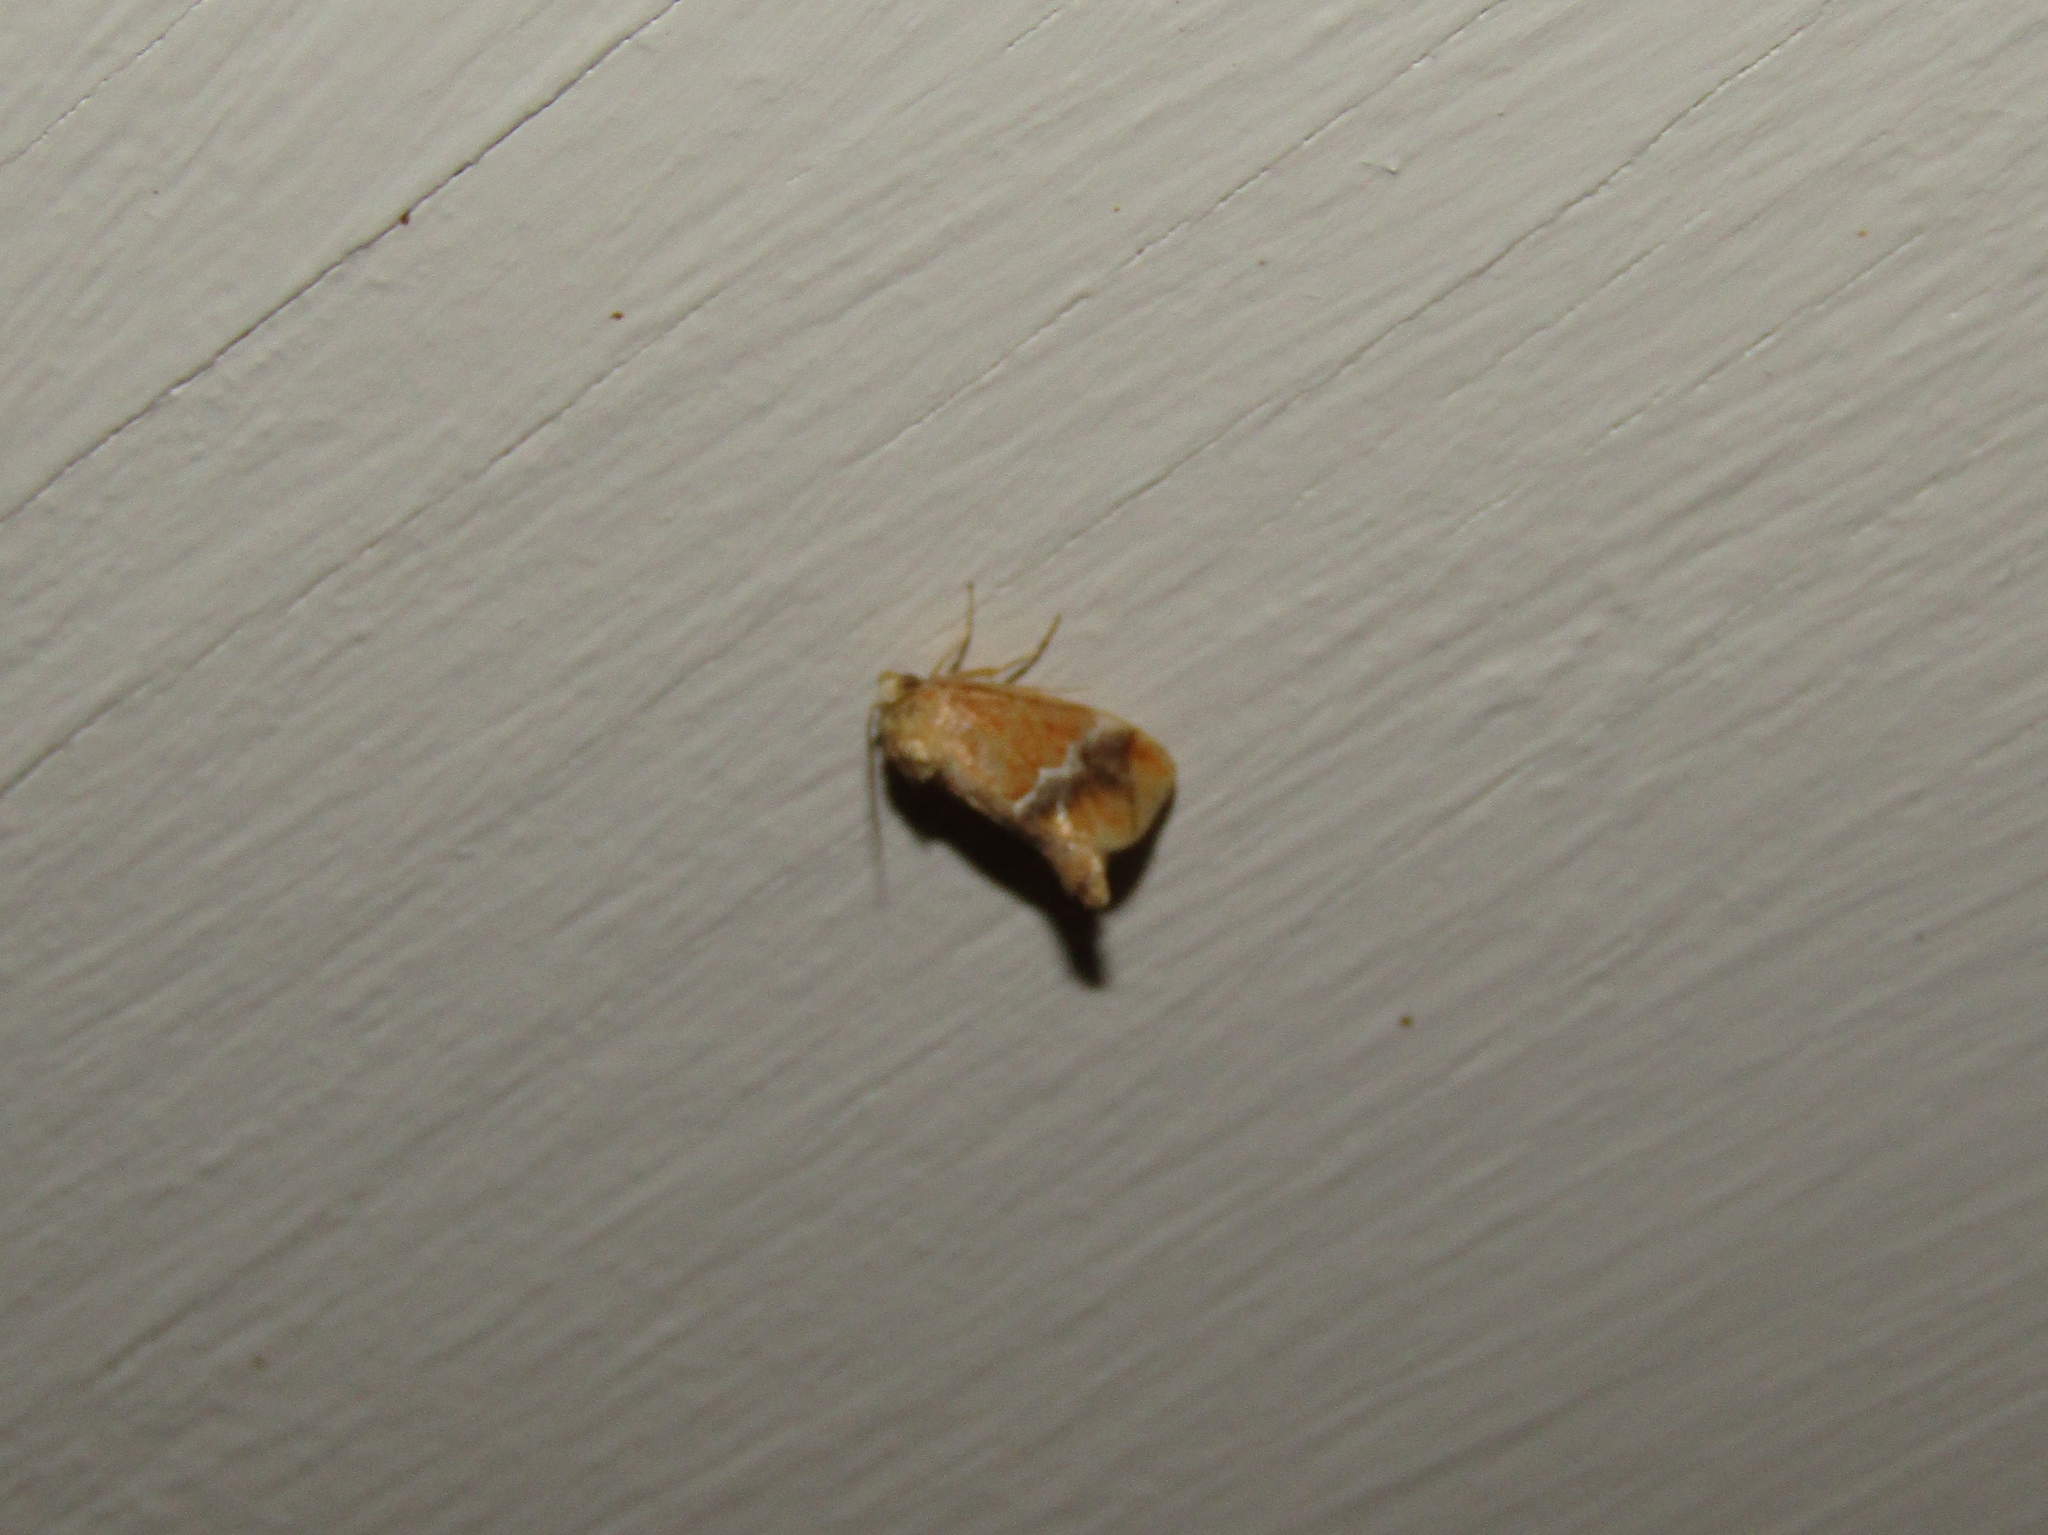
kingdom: Animalia
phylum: Arthropoda
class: Insecta
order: Lepidoptera
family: Limacodidae
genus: Lithacodes
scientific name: Lithacodes fasciola
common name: Yellow-shouldered slug moth
